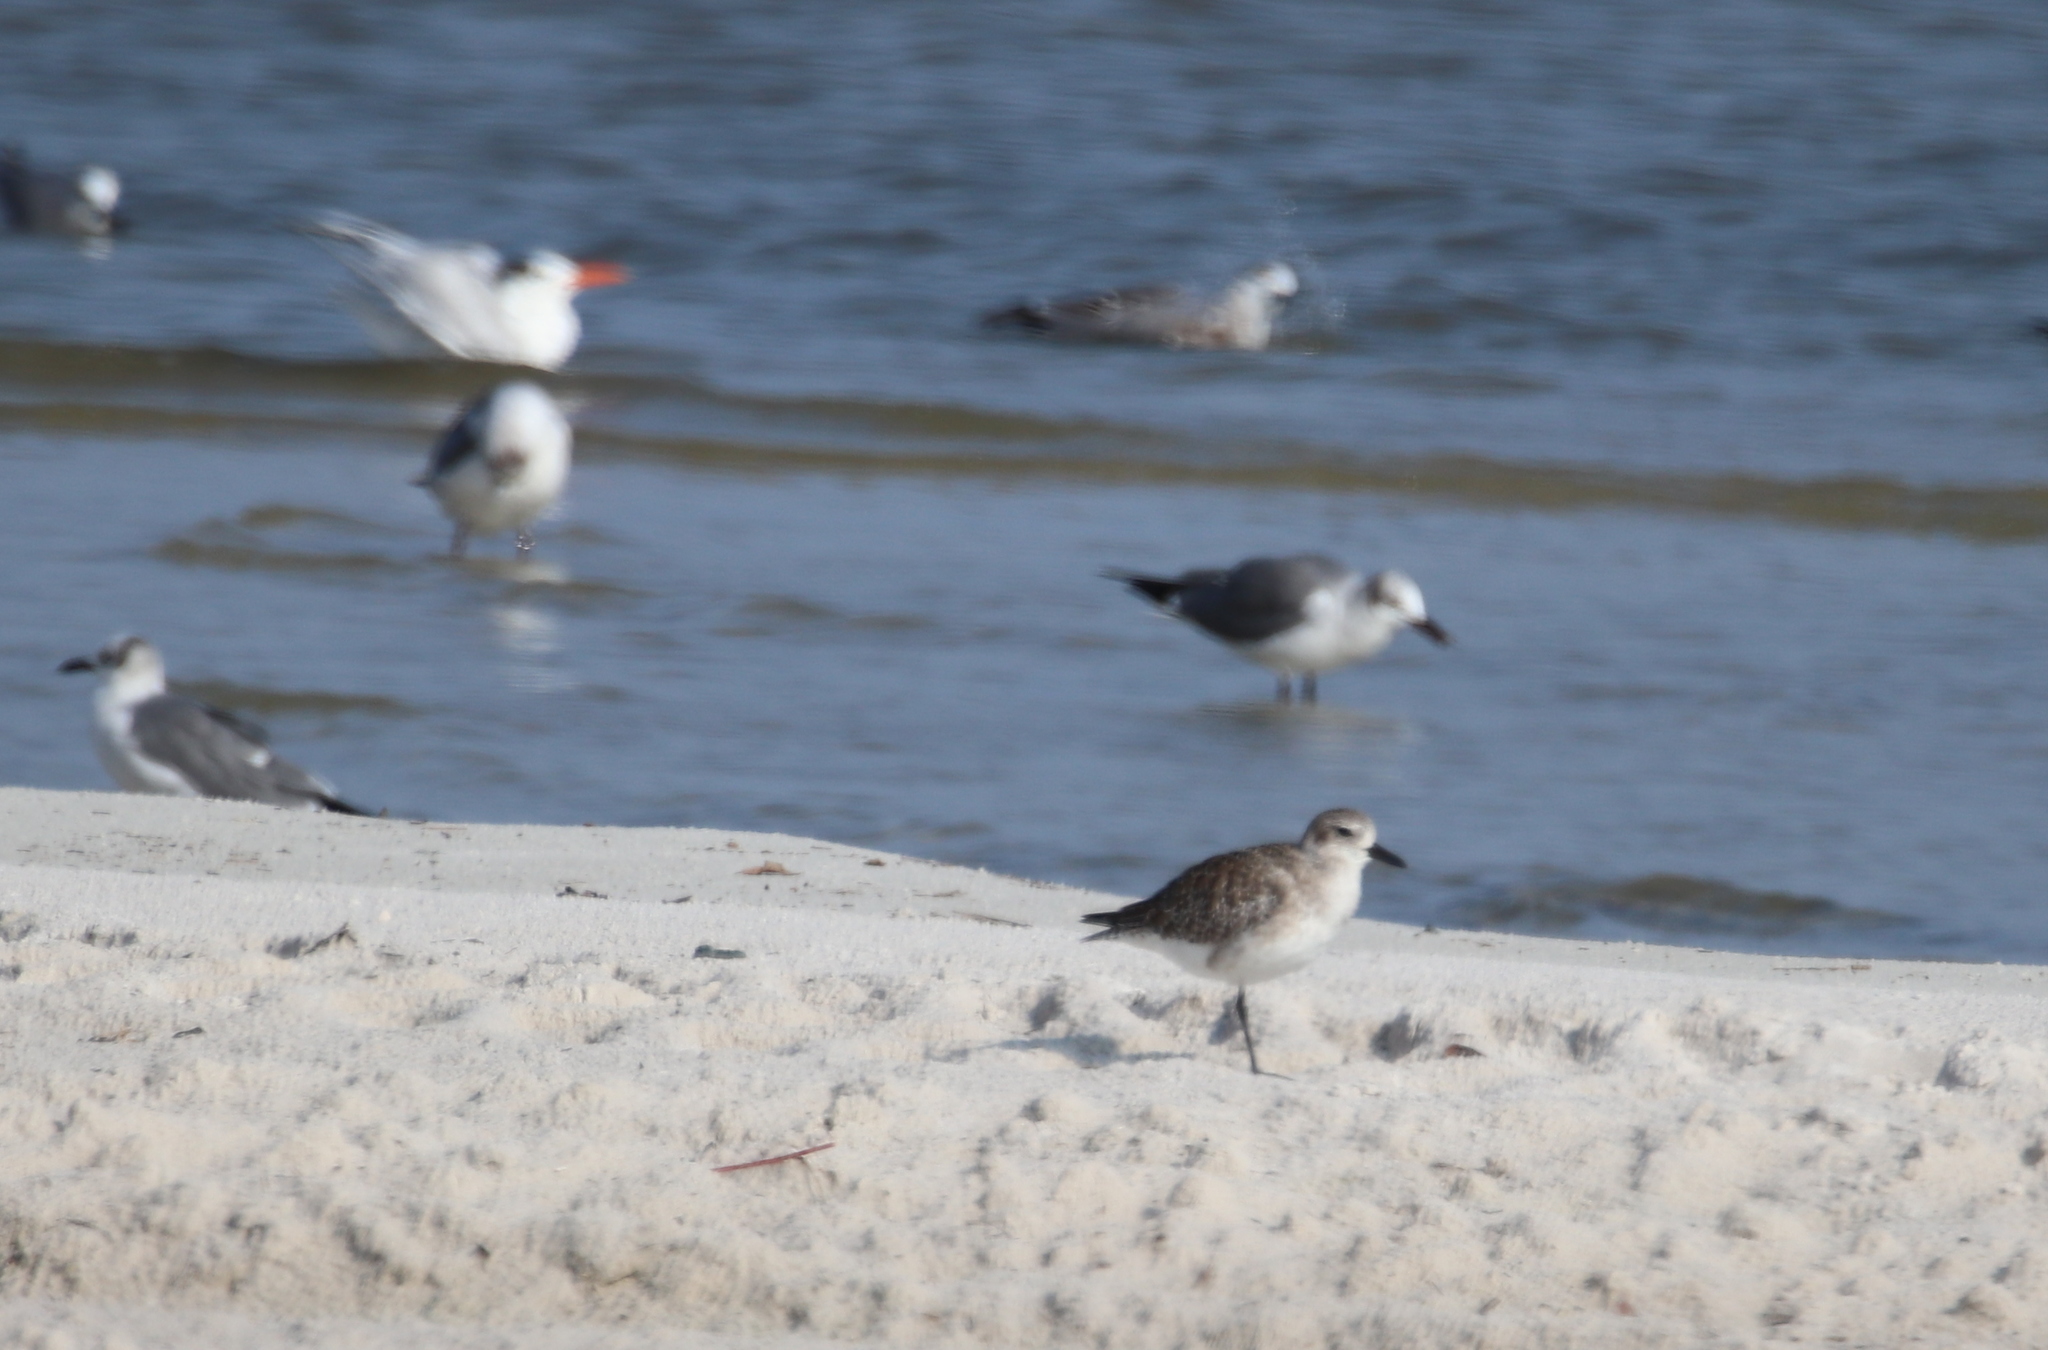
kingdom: Animalia
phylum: Chordata
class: Aves
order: Charadriiformes
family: Charadriidae
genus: Pluvialis
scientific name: Pluvialis squatarola
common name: Grey plover
